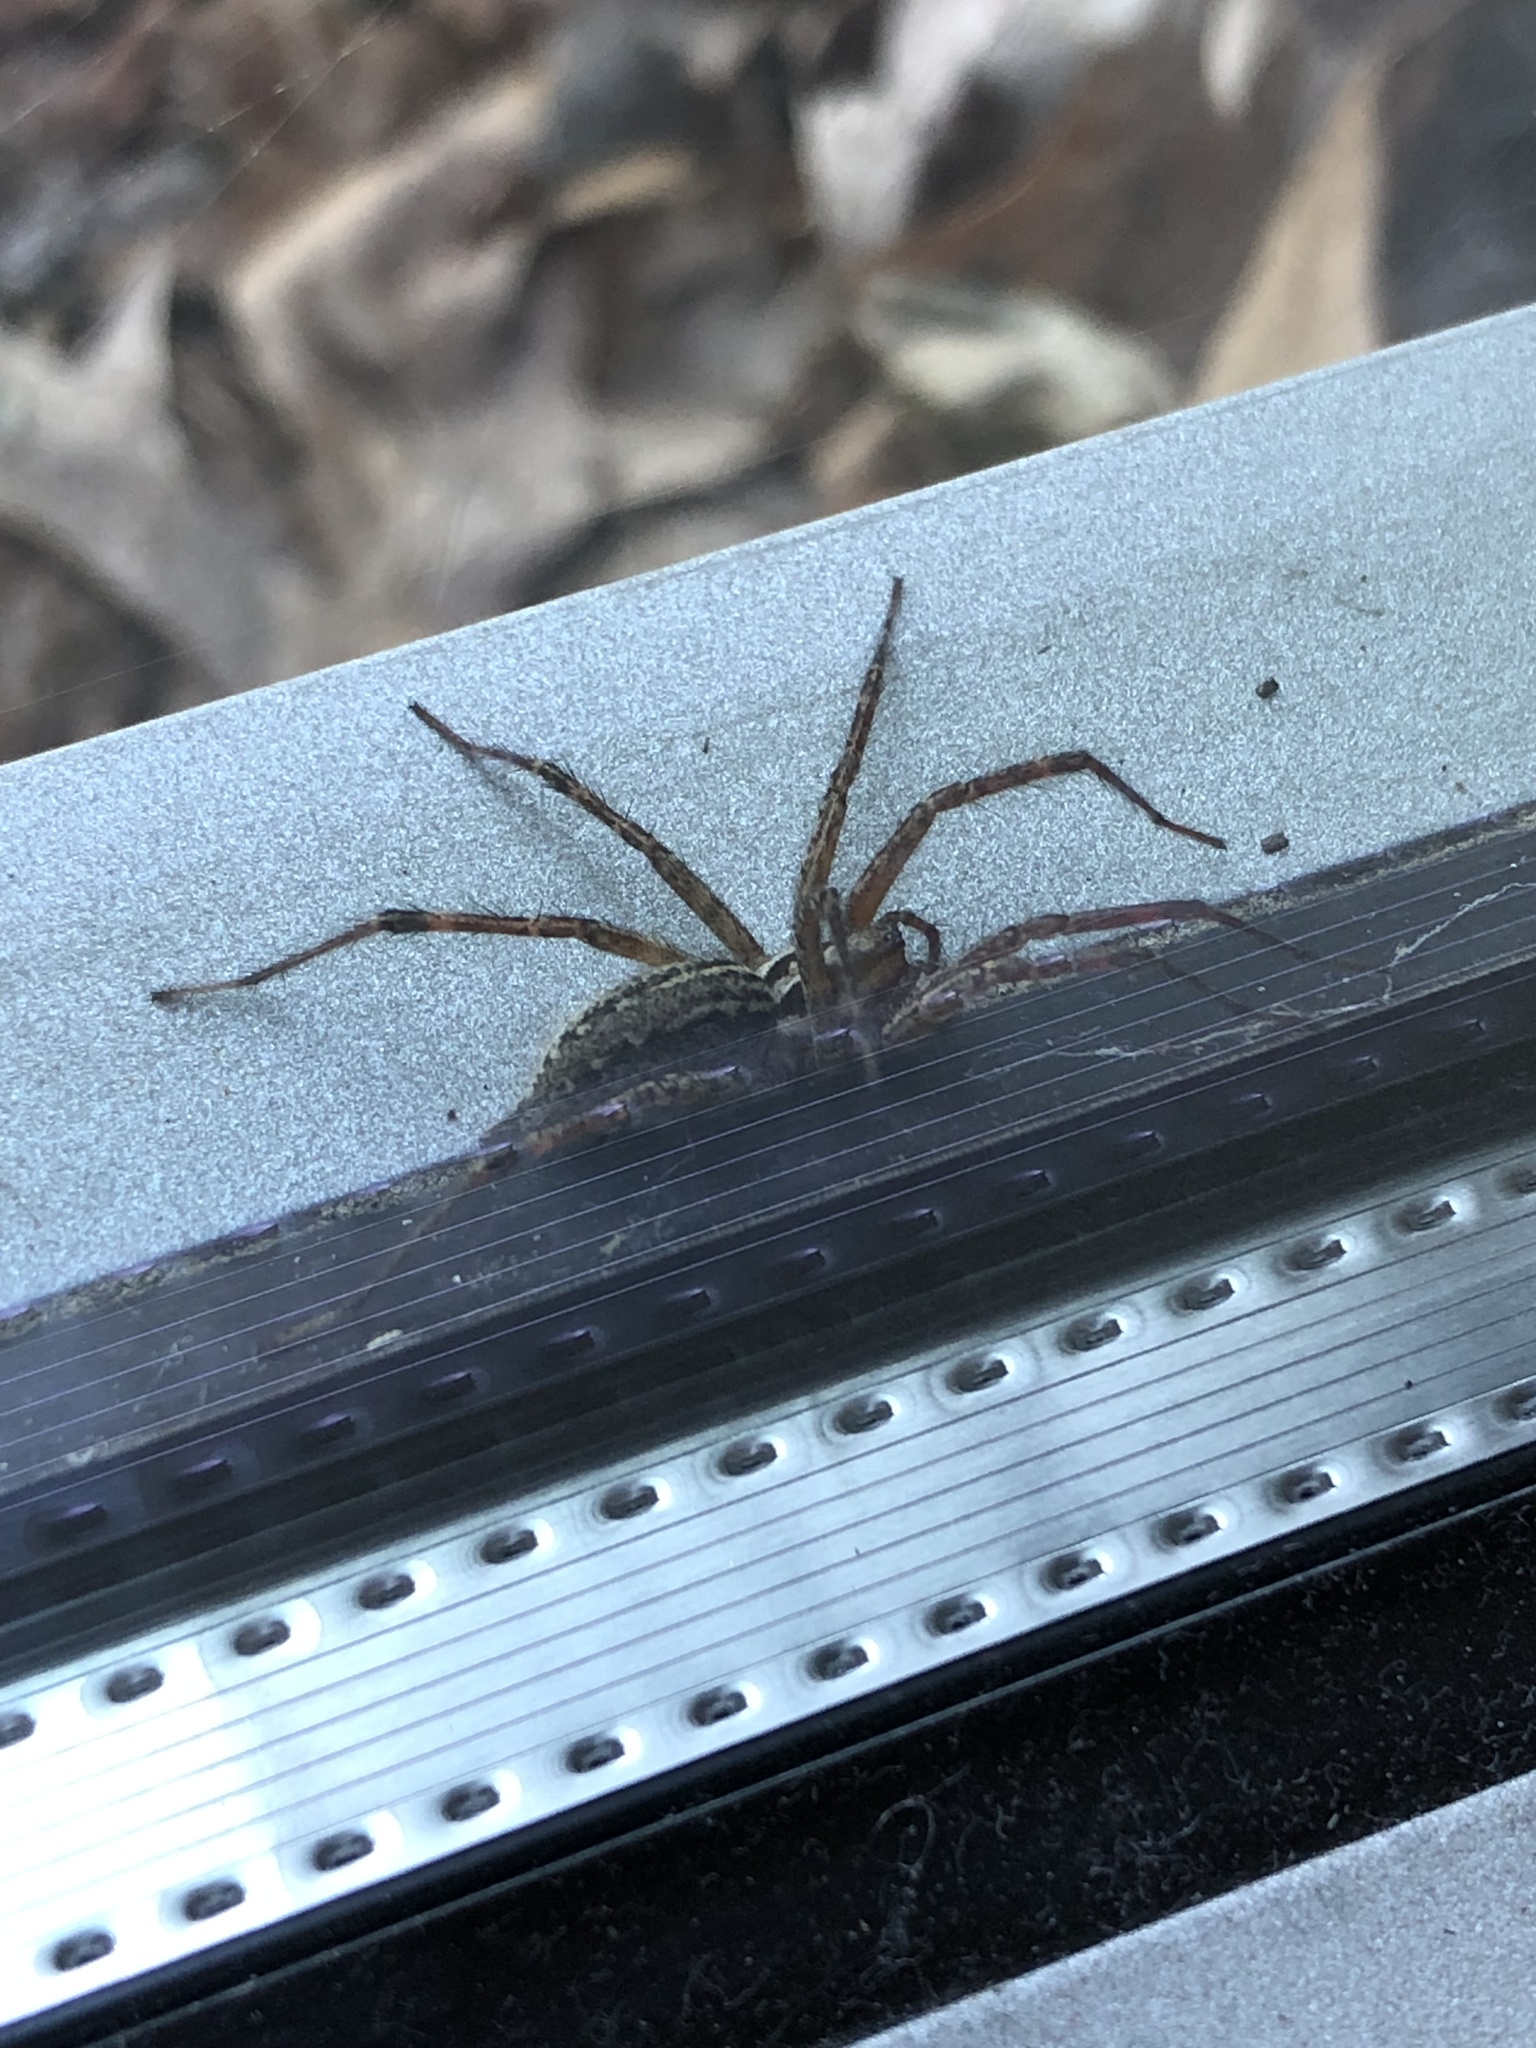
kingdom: Animalia
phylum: Arthropoda
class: Arachnida
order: Araneae
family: Agelenidae
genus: Agelenopsis
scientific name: Agelenopsis
